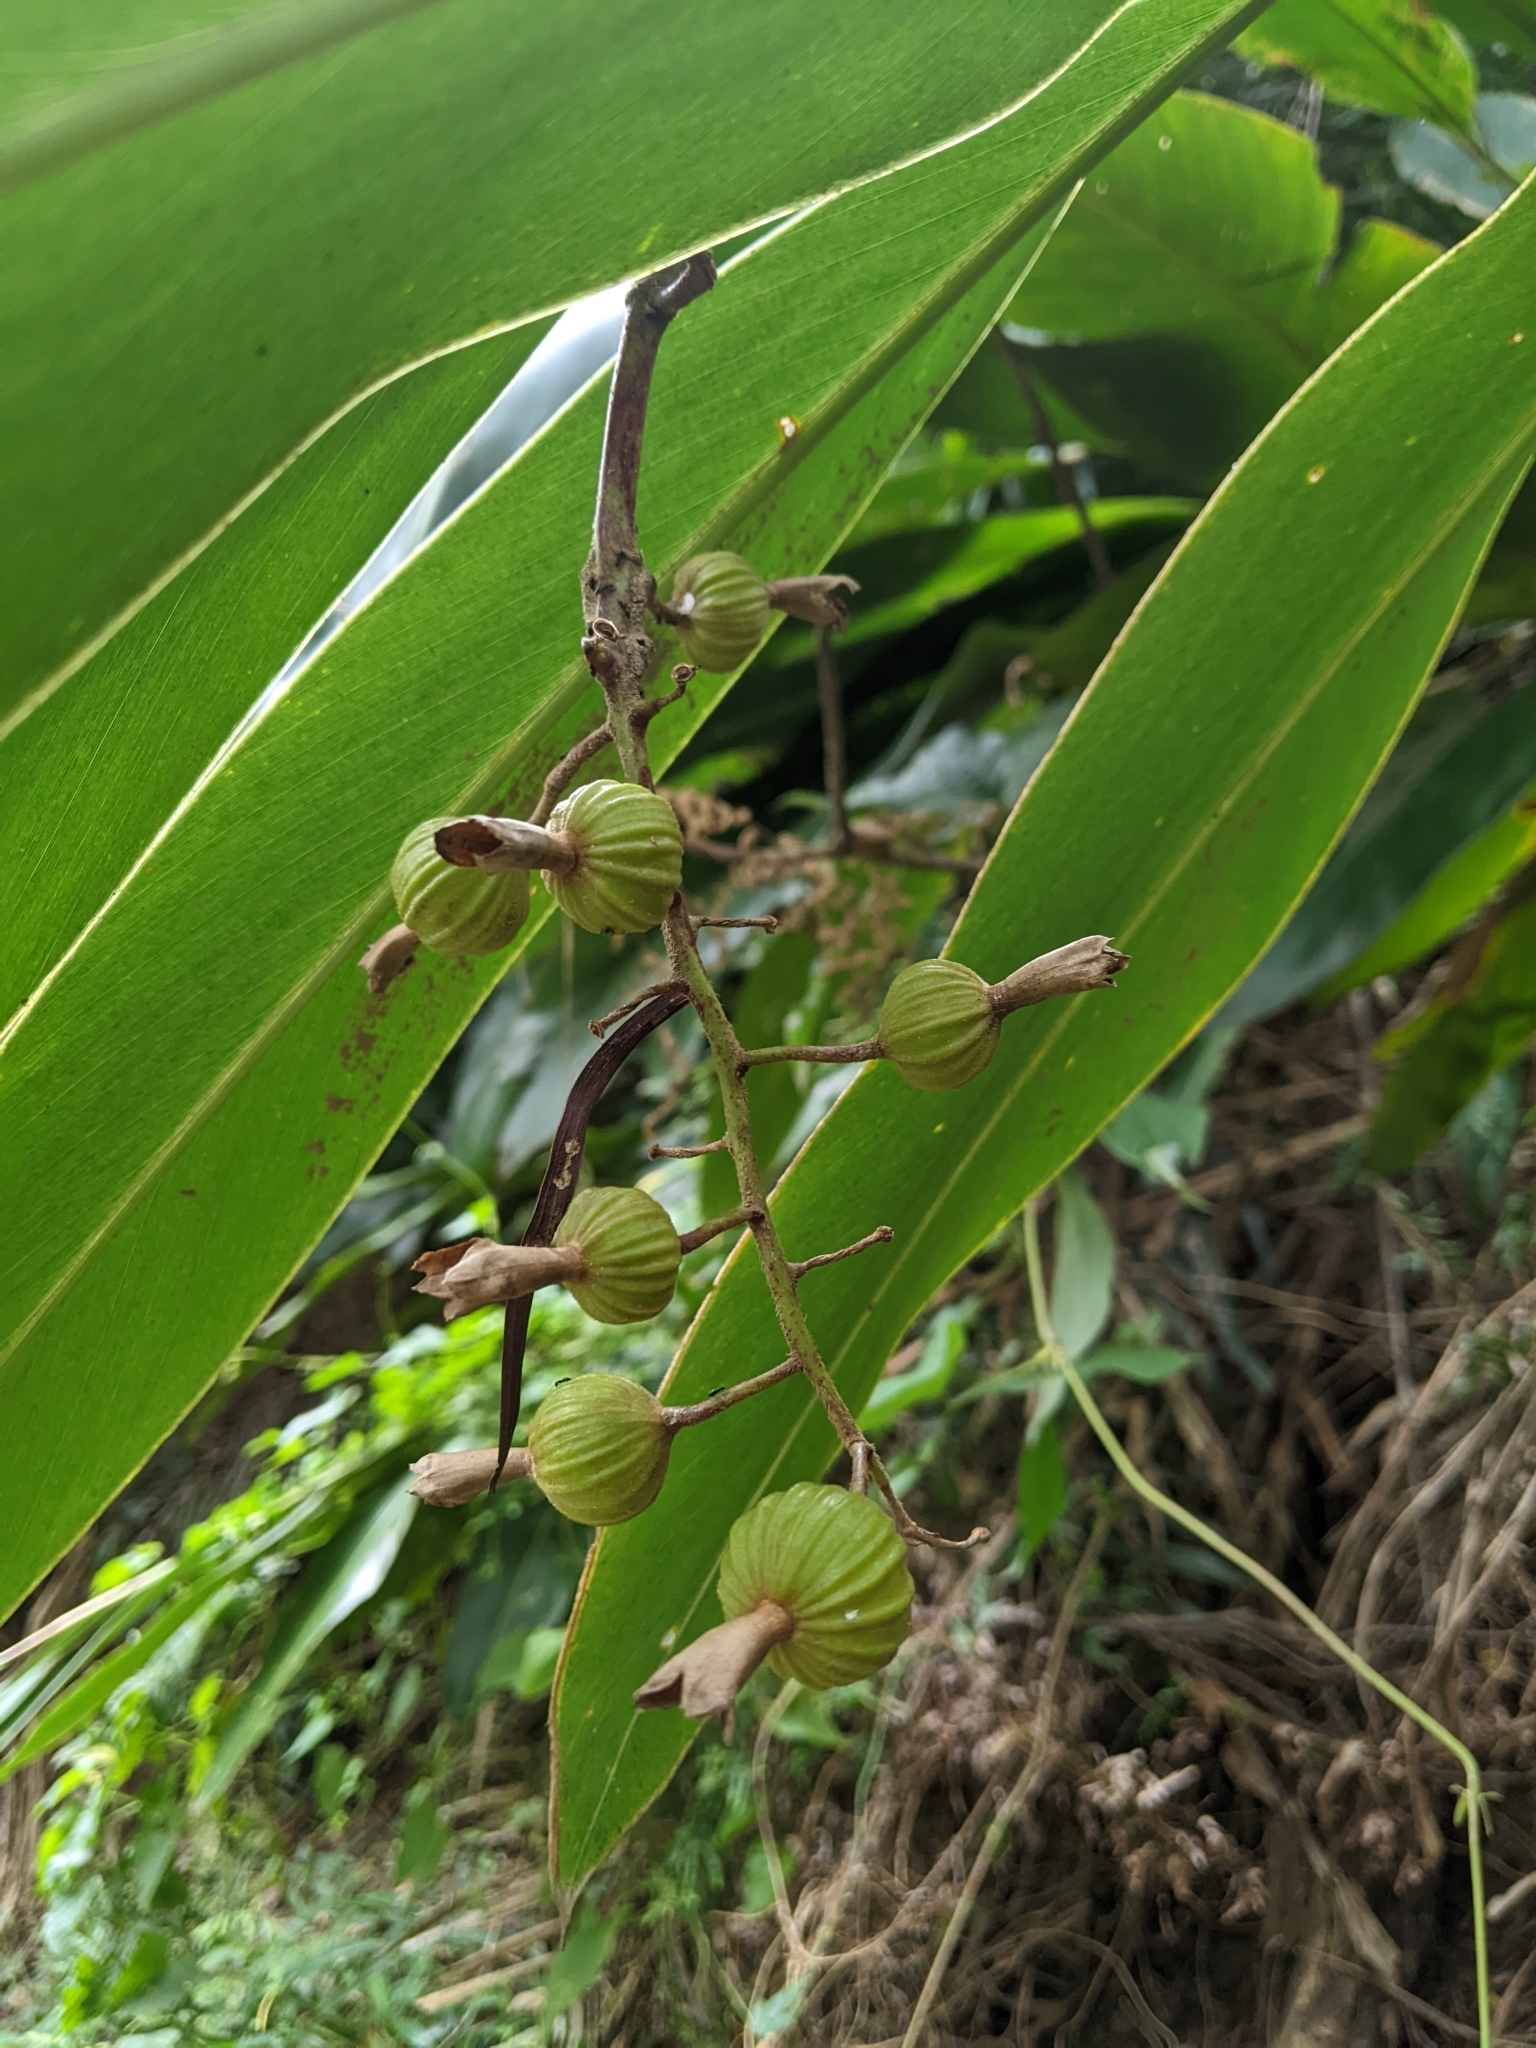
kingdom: Plantae
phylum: Tracheophyta
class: Liliopsida
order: Zingiberales
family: Zingiberaceae
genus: Alpinia
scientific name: Alpinia zerumbet
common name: Shellplant
